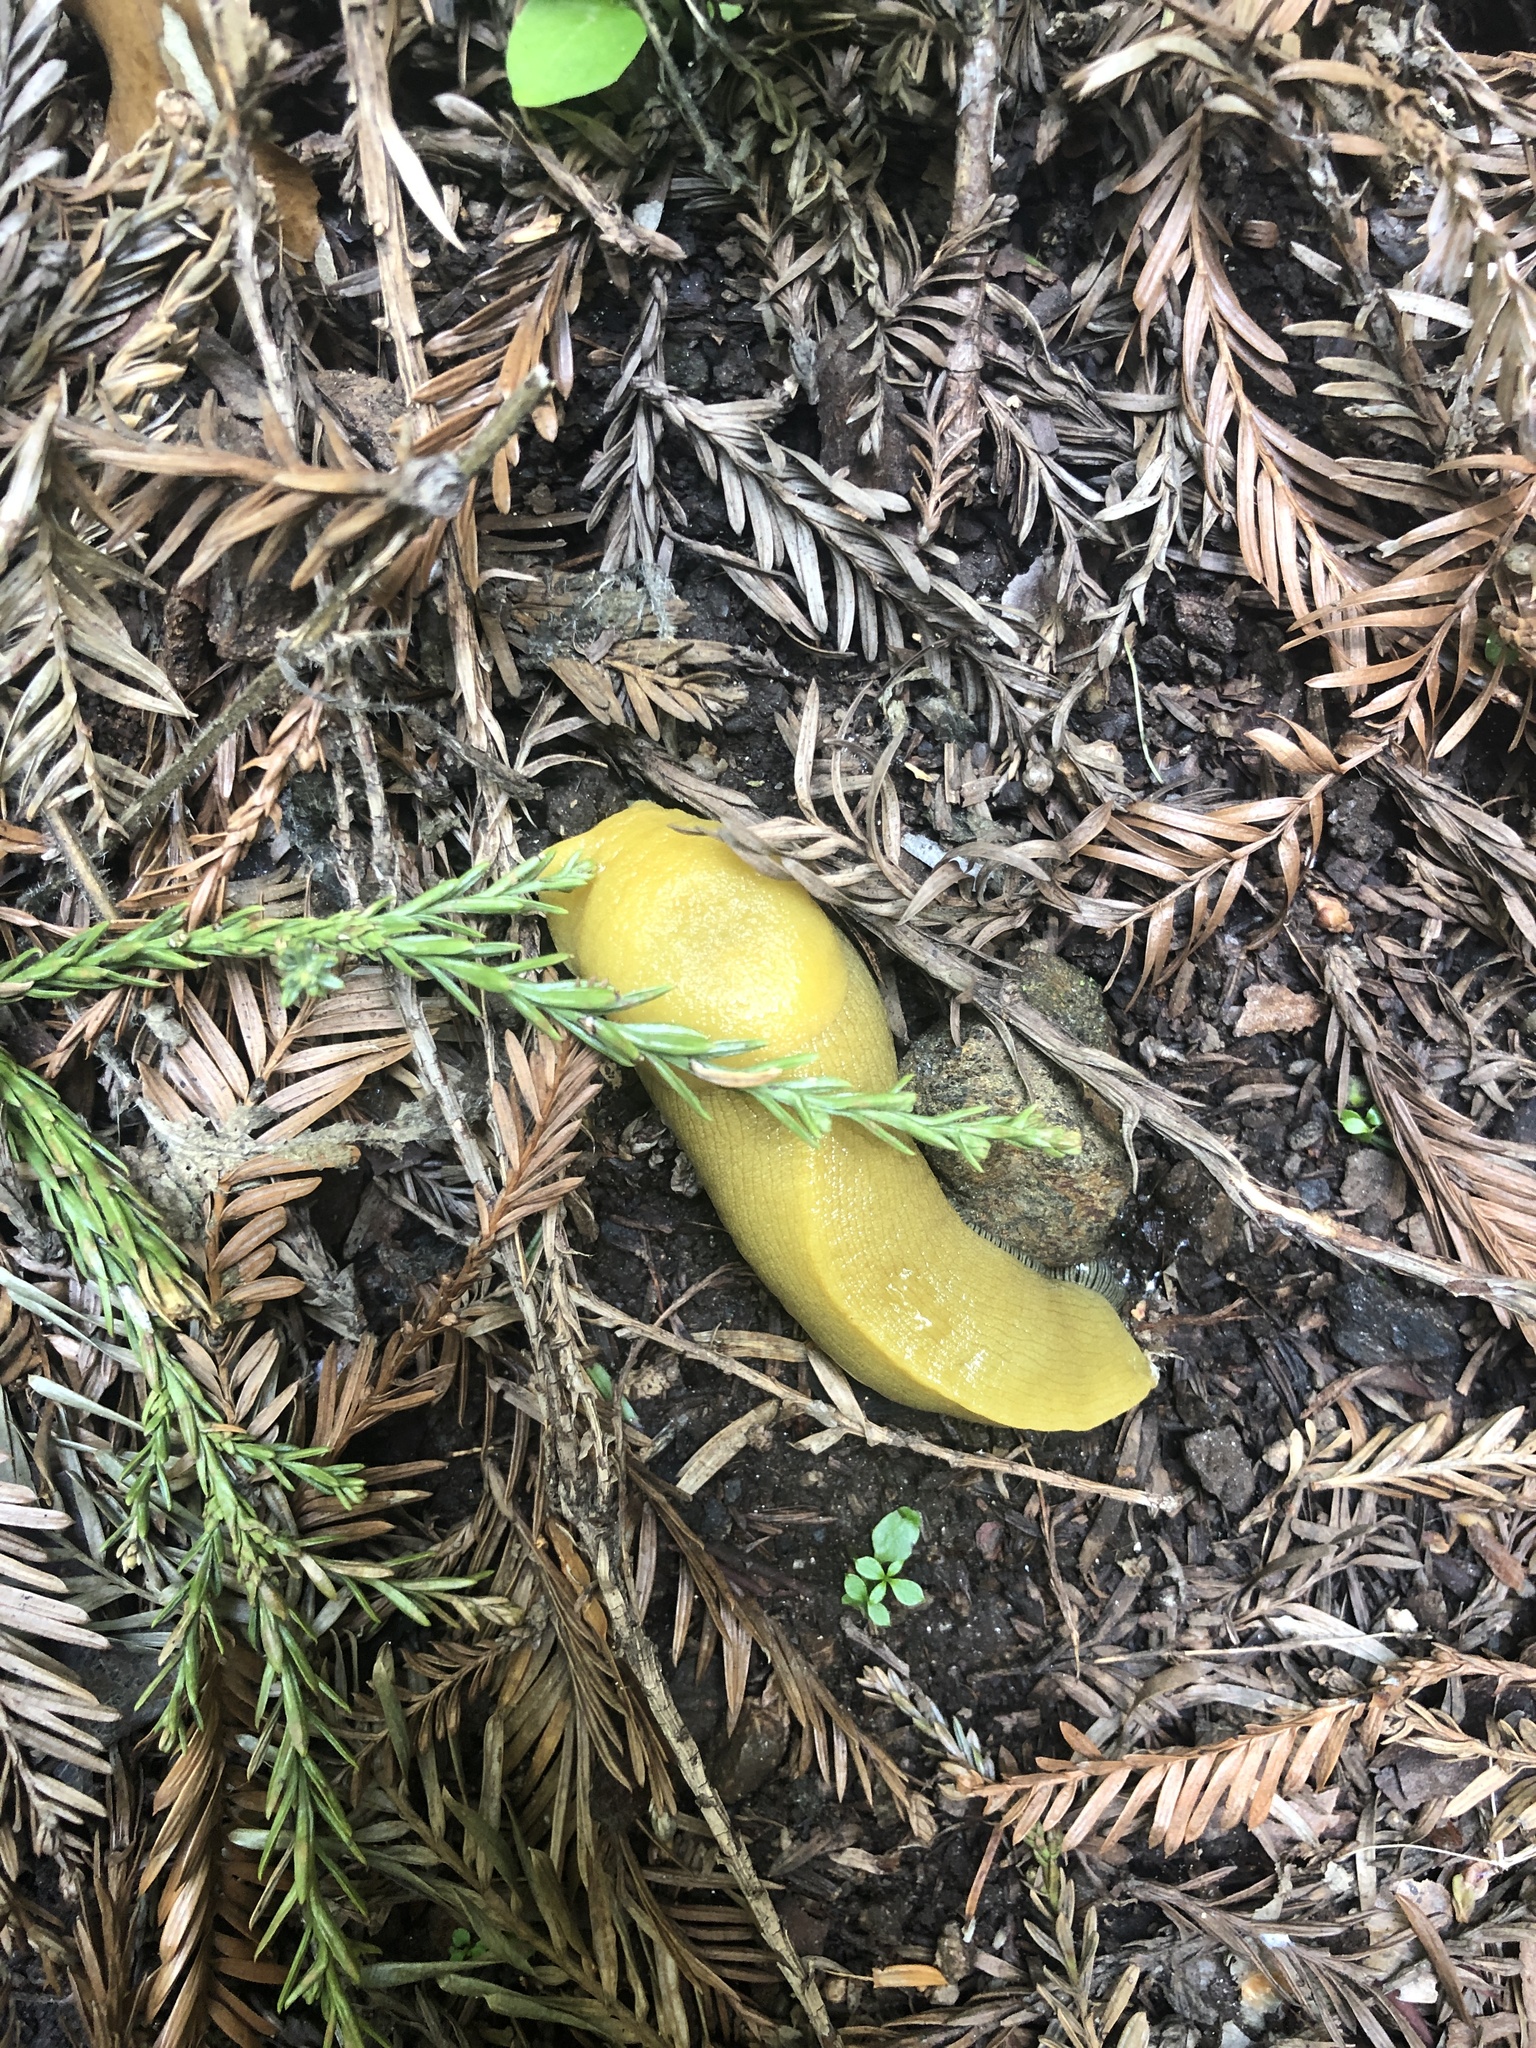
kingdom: Animalia
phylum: Mollusca
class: Gastropoda
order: Stylommatophora
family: Ariolimacidae
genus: Ariolimax
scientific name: Ariolimax dolichophallus
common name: Slender banana slug
